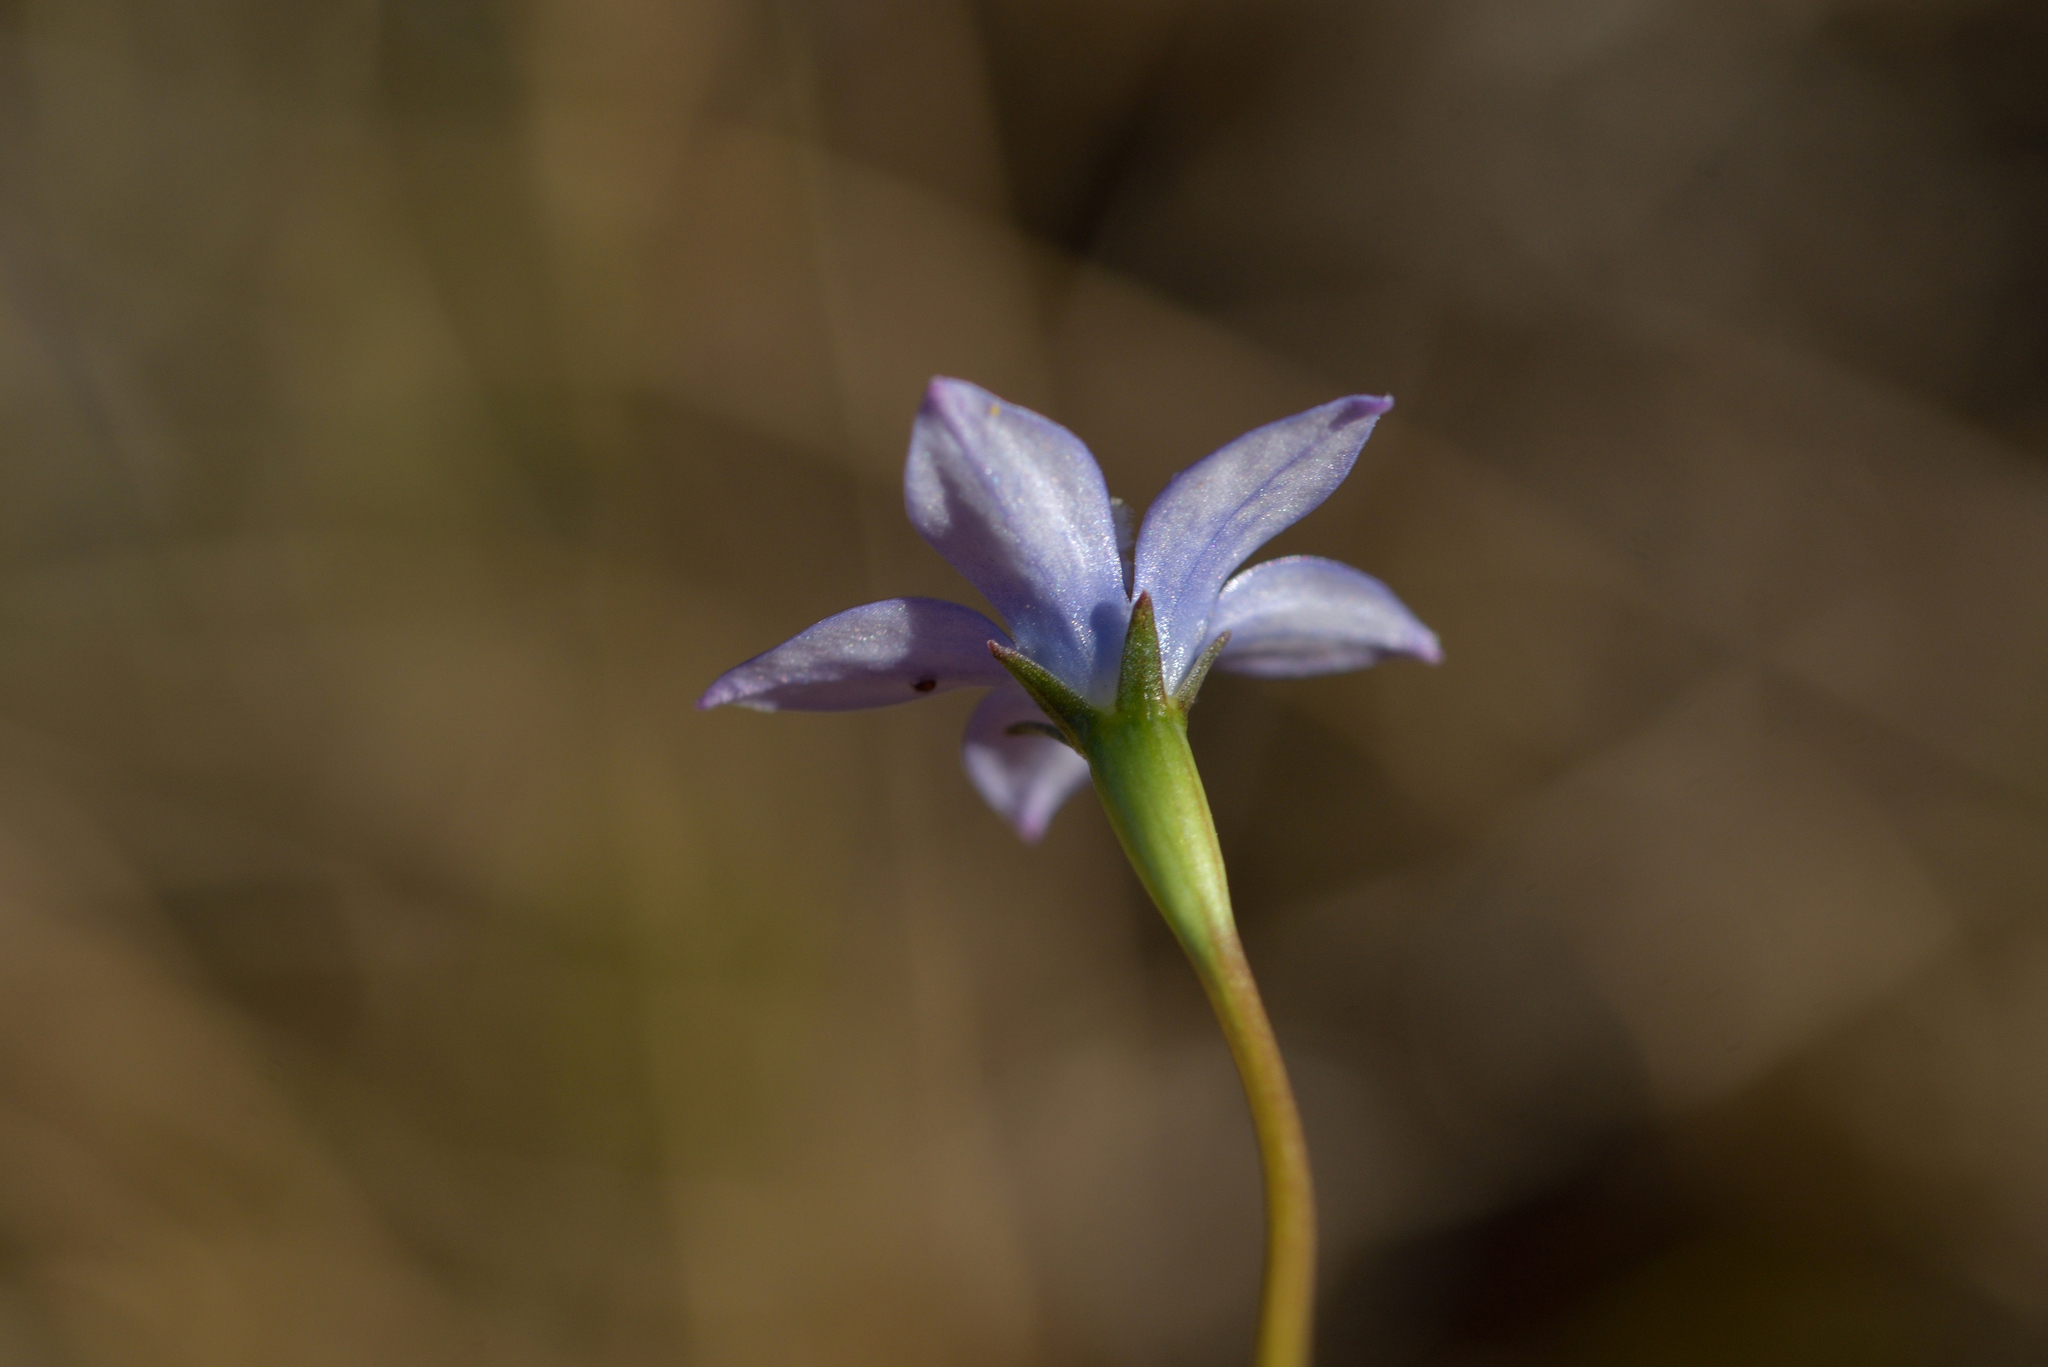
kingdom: Plantae
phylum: Tracheophyta
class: Magnoliopsida
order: Asterales
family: Campanulaceae
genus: Wahlenbergia
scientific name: Wahlenbergia violacea
